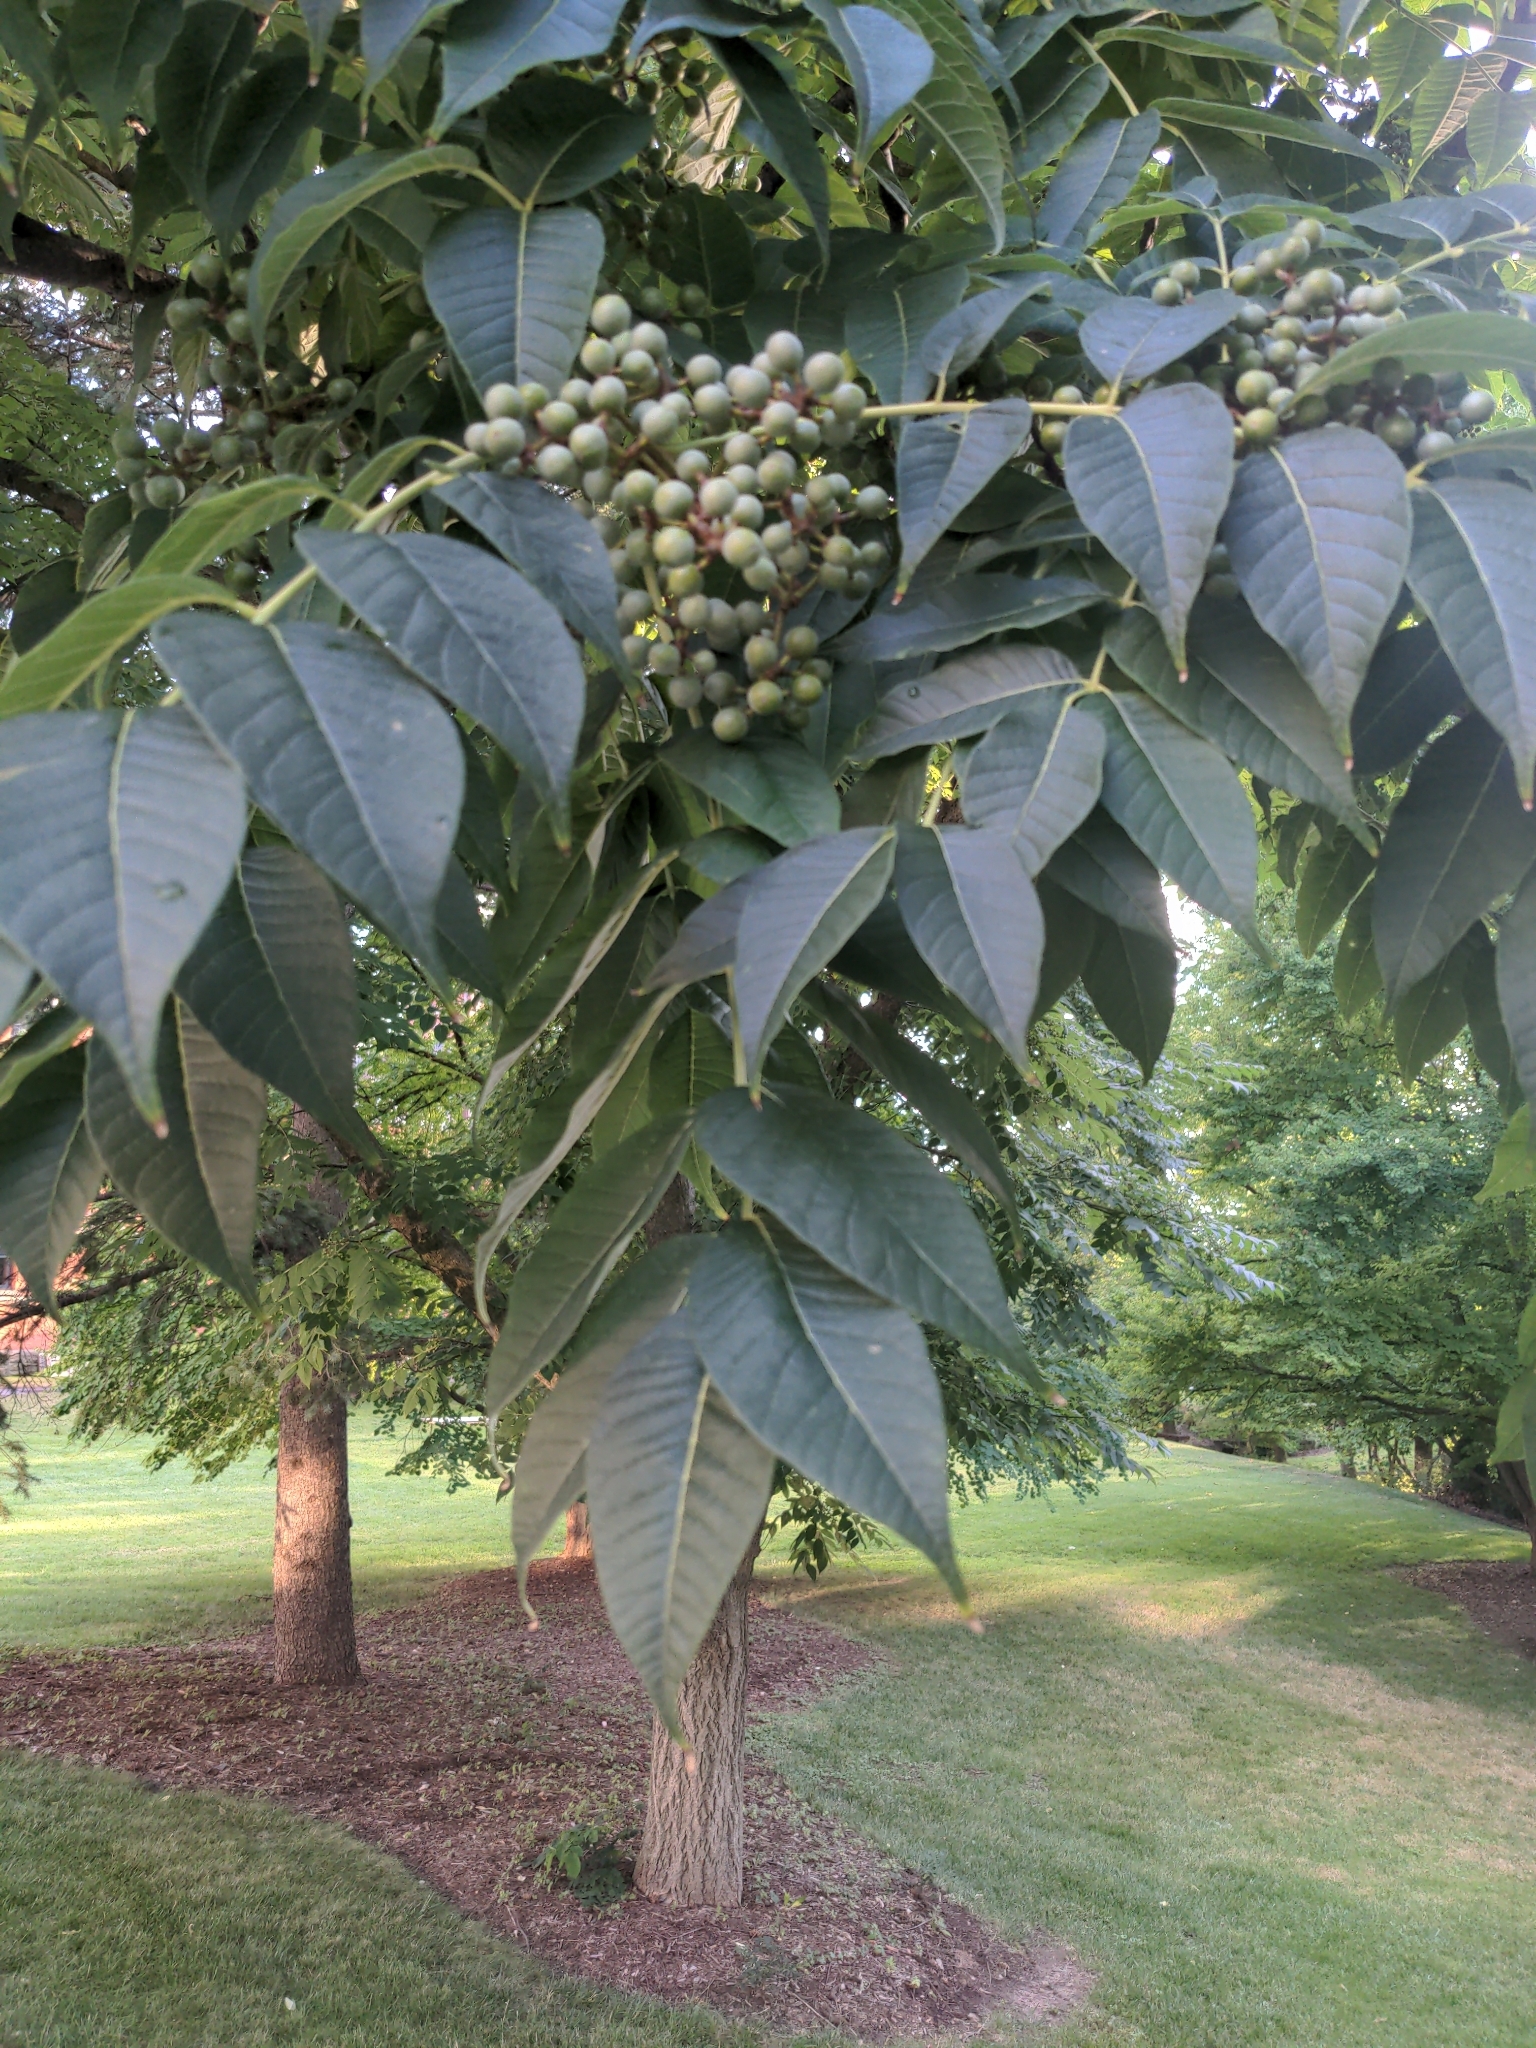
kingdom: Plantae
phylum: Tracheophyta
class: Magnoliopsida
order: Sapindales
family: Rutaceae
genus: Phellodendron
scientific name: Phellodendron amurense
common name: Amur corktree
